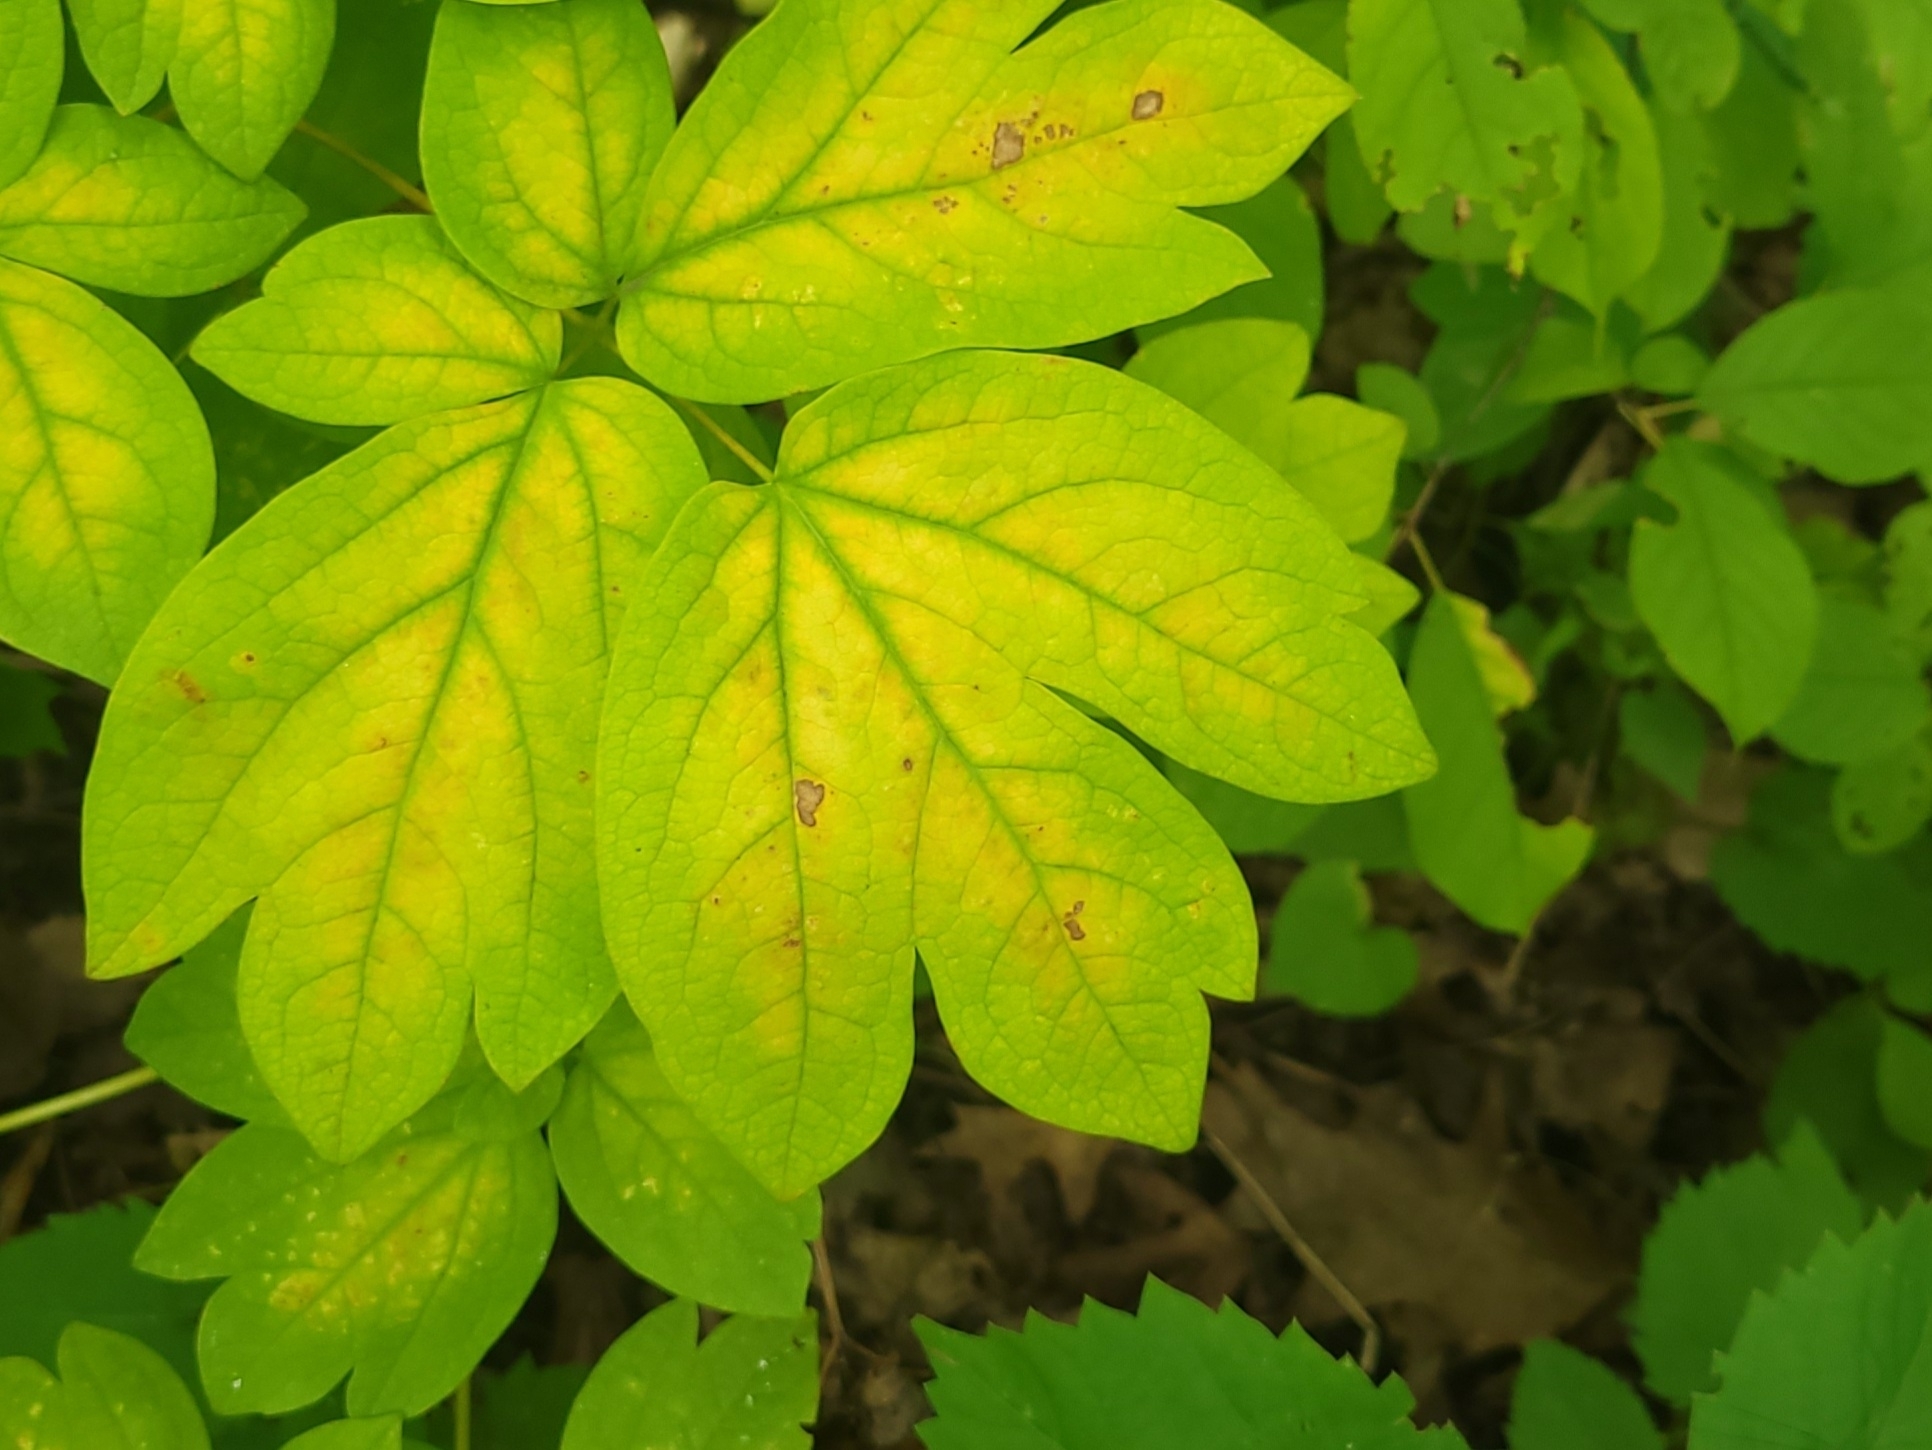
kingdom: Plantae
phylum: Tracheophyta
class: Magnoliopsida
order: Ranunculales
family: Berberidaceae
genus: Caulophyllum
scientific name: Caulophyllum
